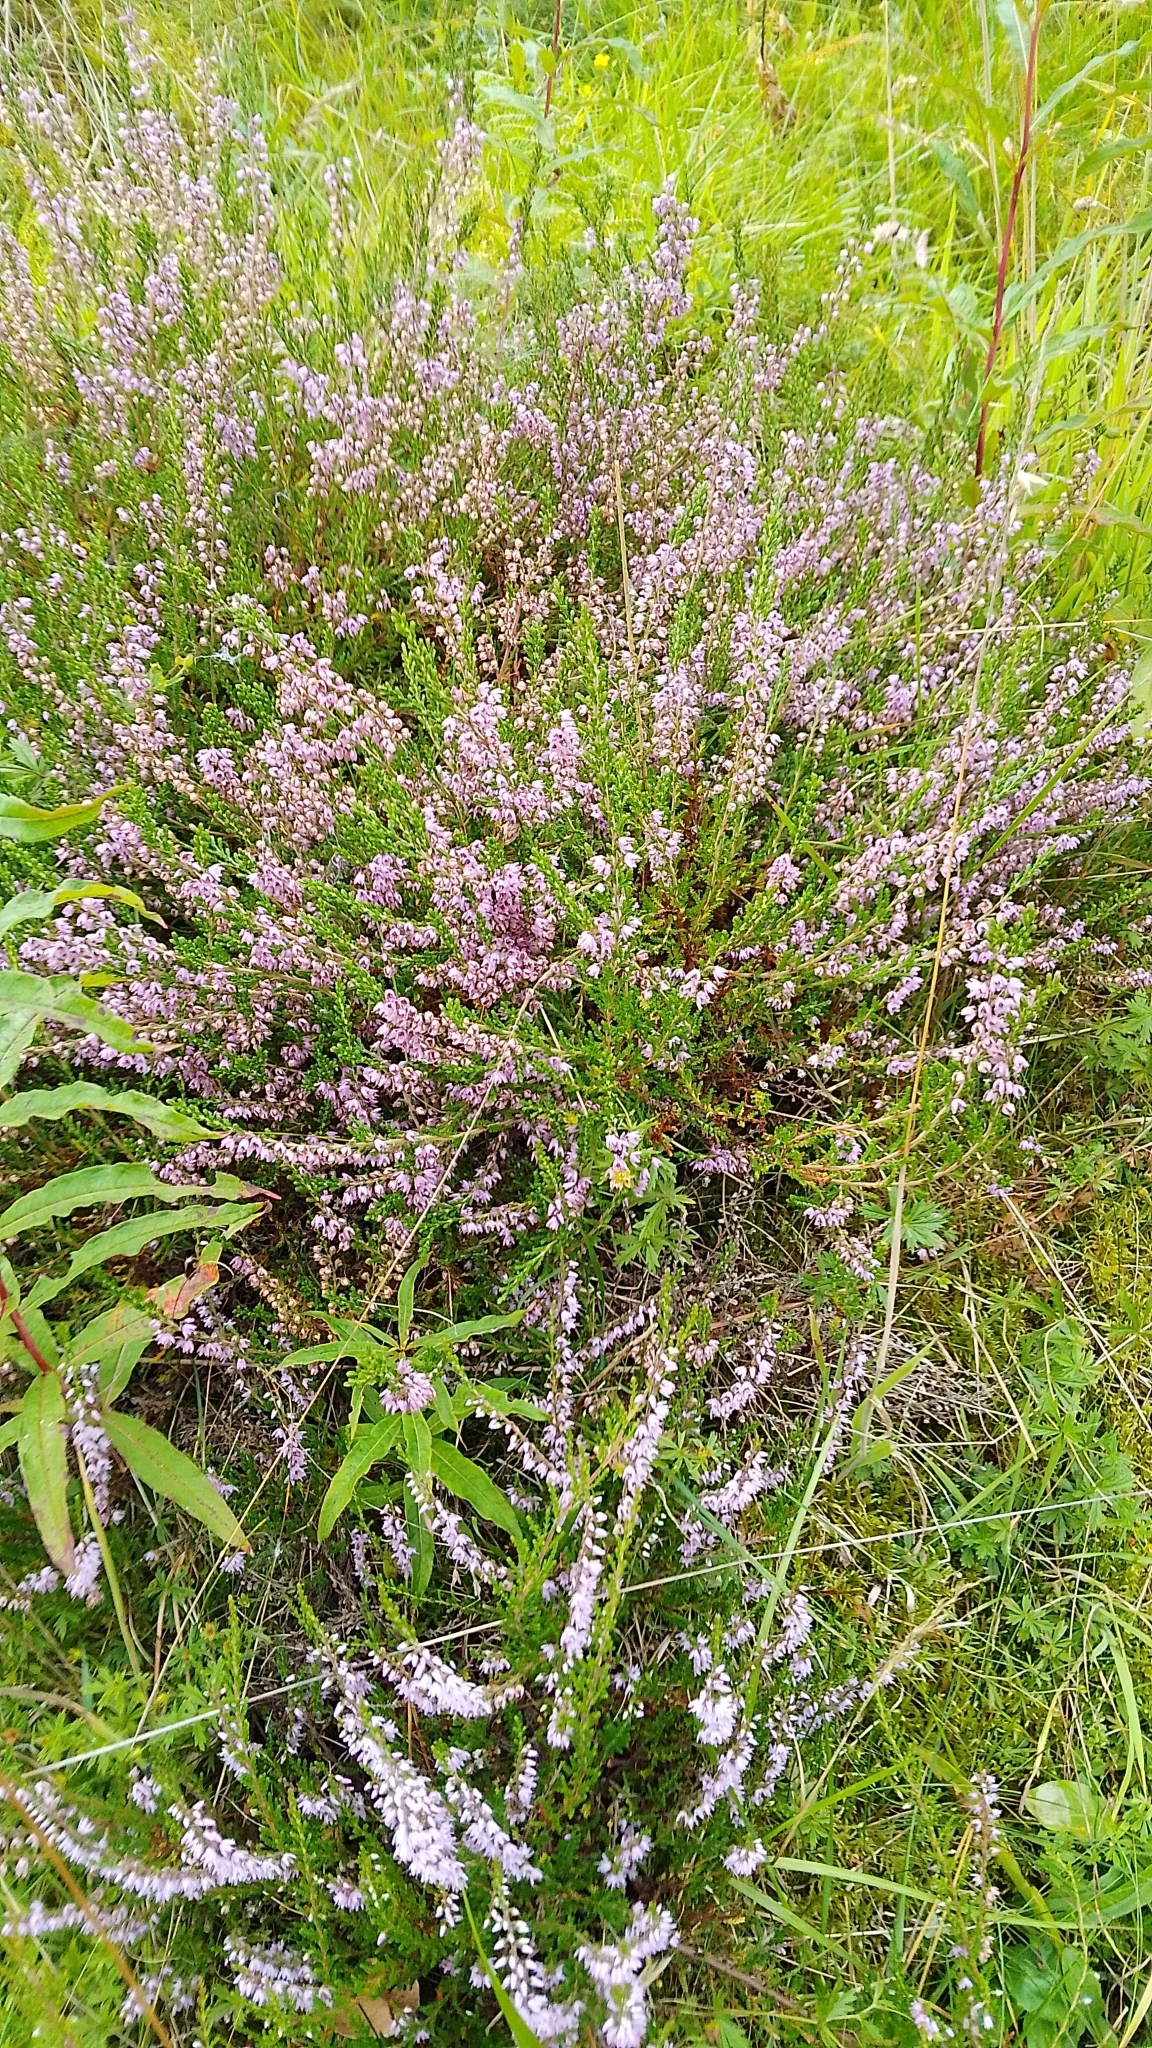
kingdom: Plantae
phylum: Tracheophyta
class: Magnoliopsida
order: Ericales
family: Ericaceae
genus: Calluna
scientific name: Calluna vulgaris
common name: Heather
